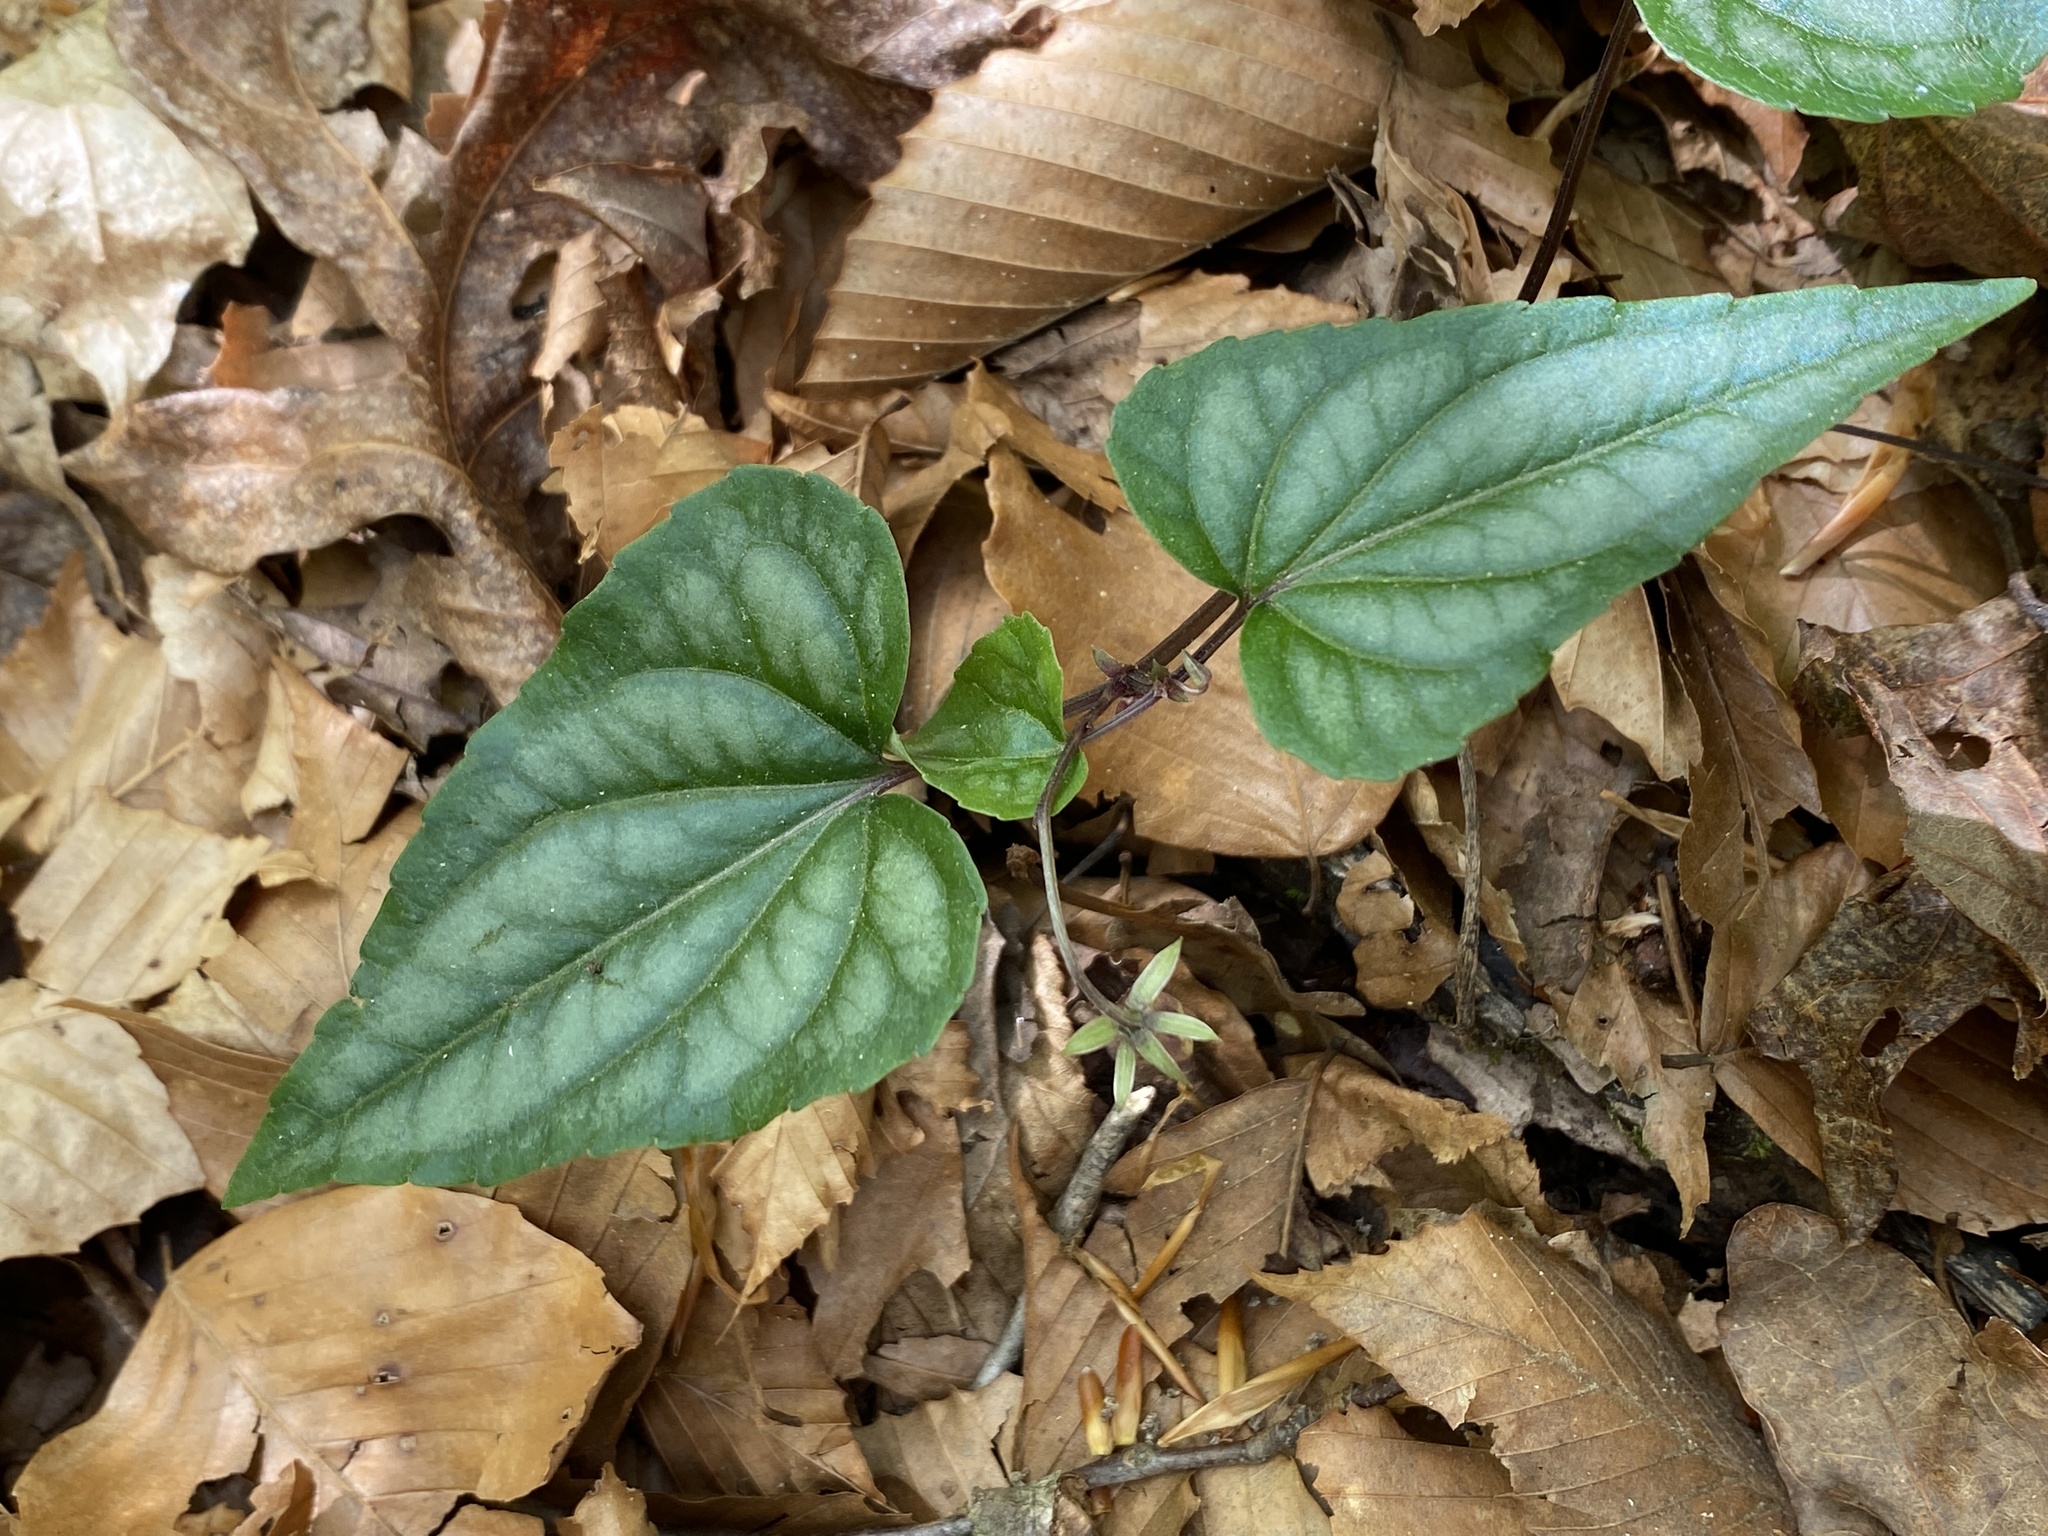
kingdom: Plantae
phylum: Tracheophyta
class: Magnoliopsida
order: Malpighiales
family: Violaceae
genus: Viola
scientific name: Viola hastata
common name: Spear-leaf violet
